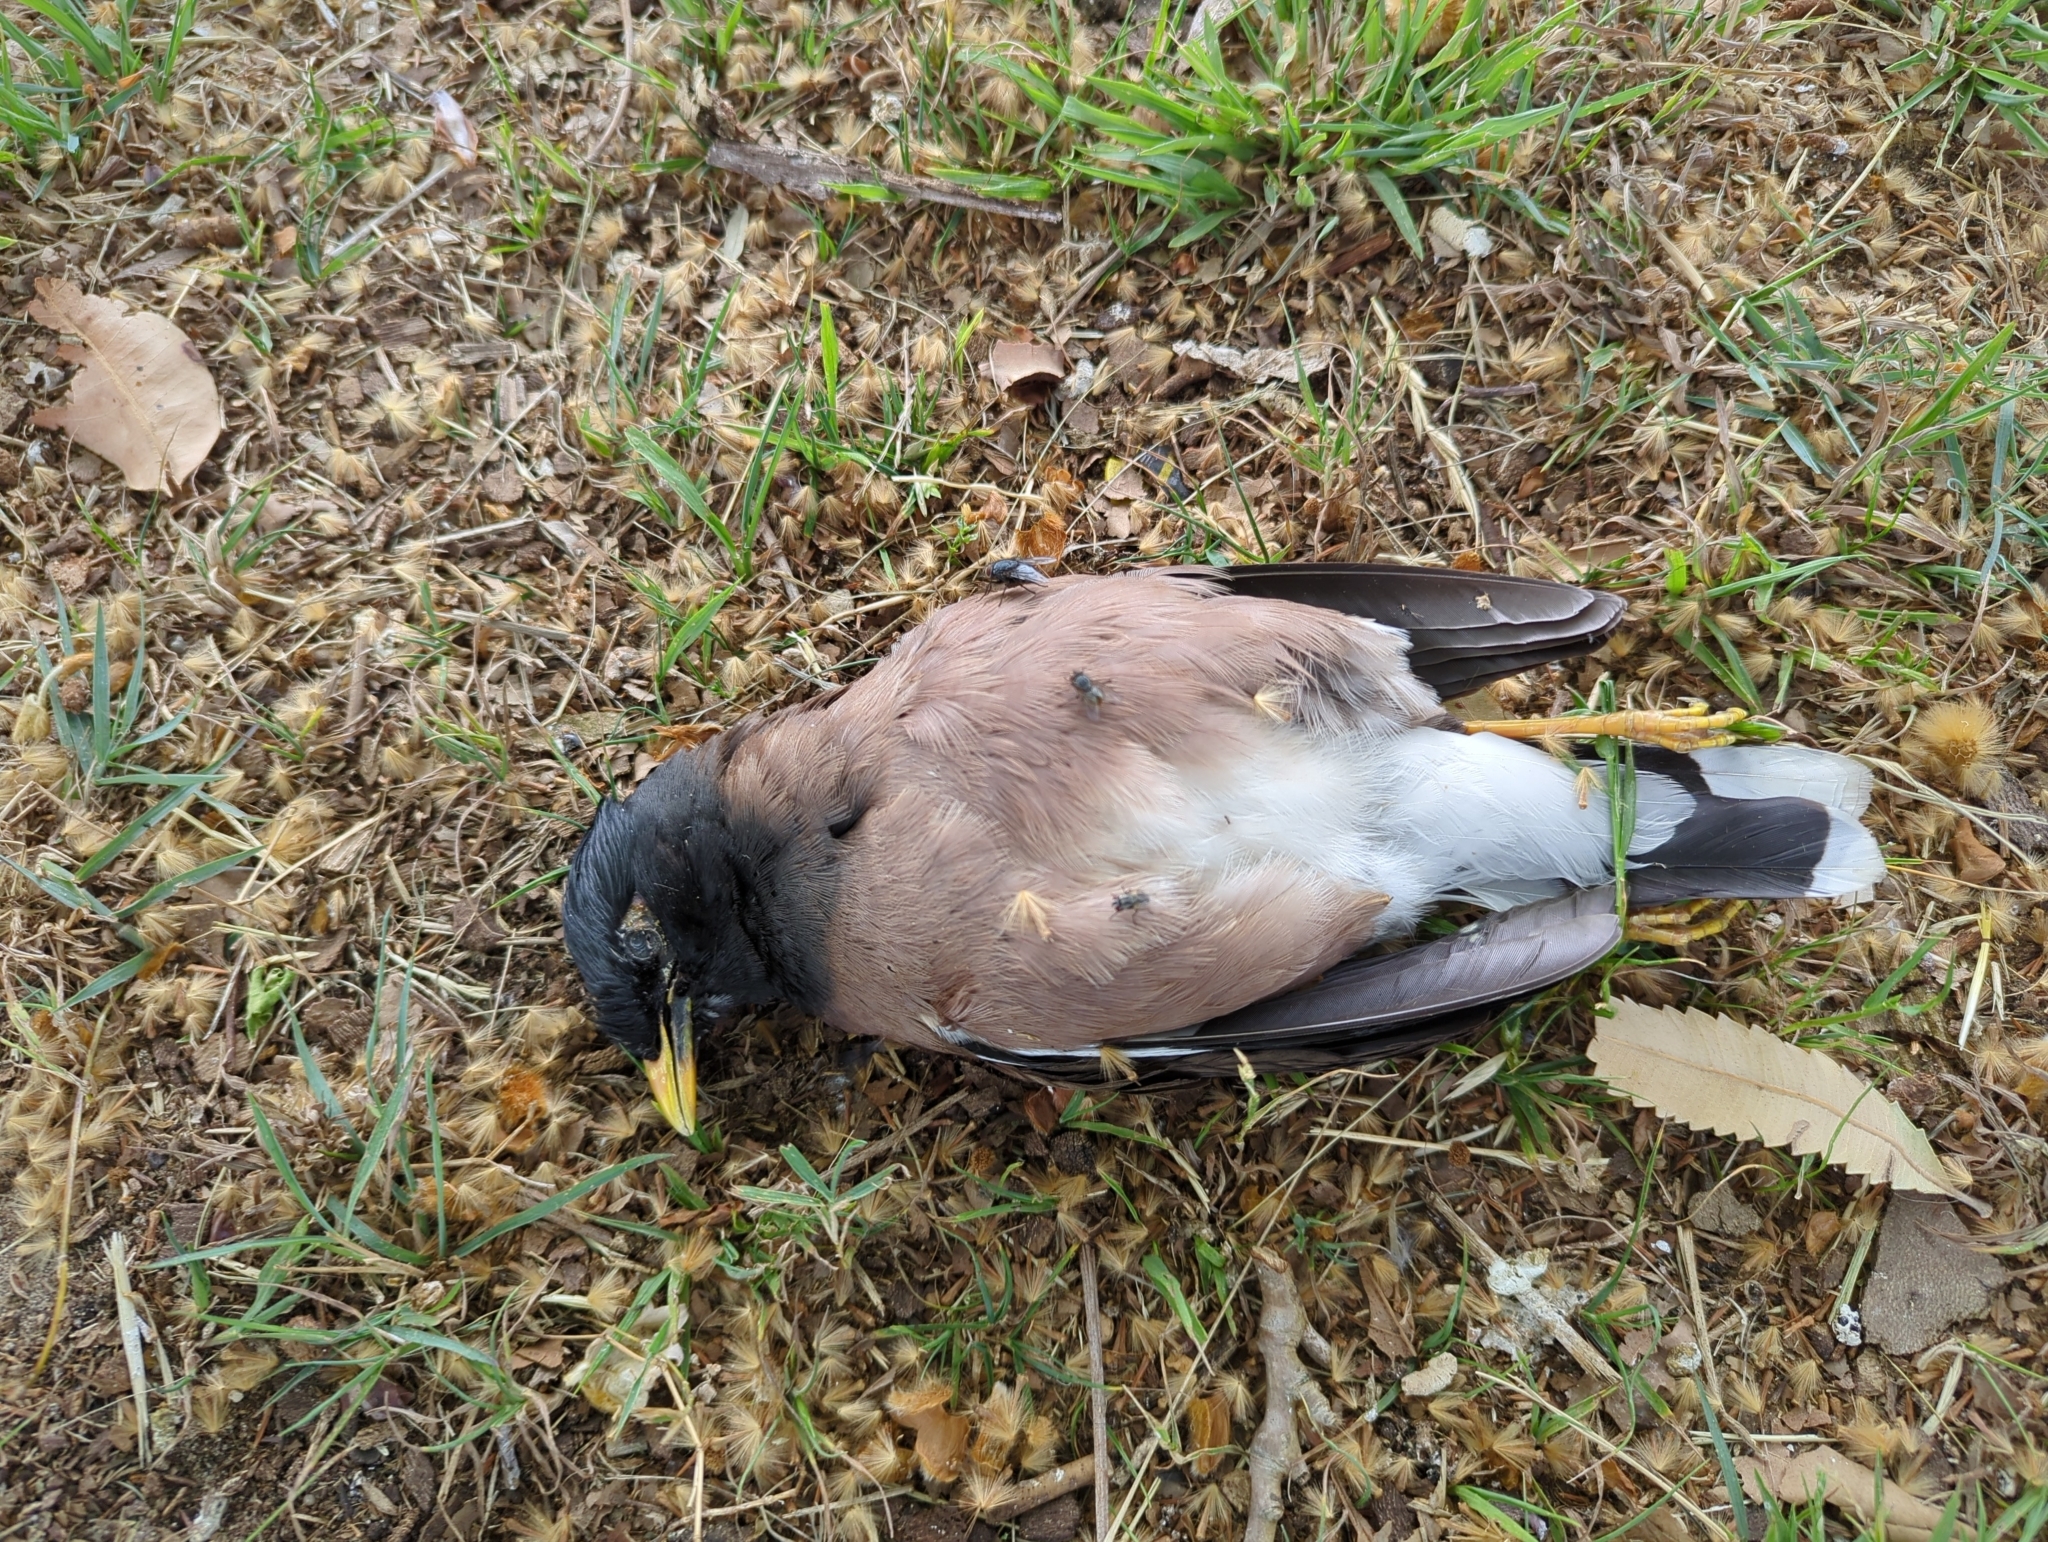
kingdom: Animalia
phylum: Chordata
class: Aves
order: Passeriformes
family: Sturnidae
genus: Acridotheres
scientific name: Acridotheres tristis
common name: Common myna
